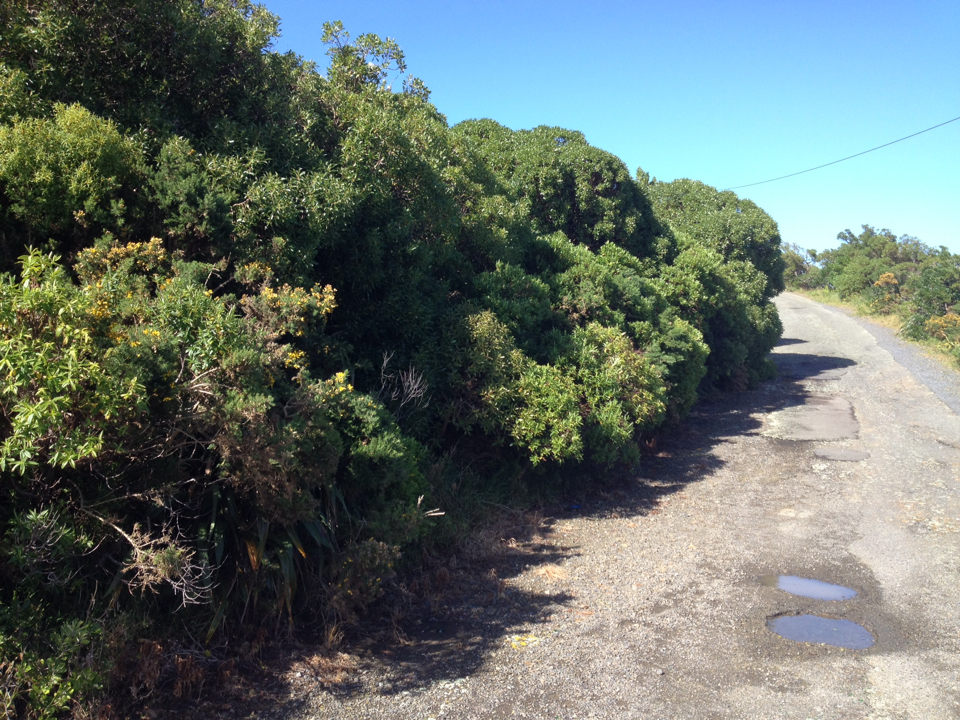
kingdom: Plantae
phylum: Tracheophyta
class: Magnoliopsida
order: Lamiales
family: Scrophulariaceae
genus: Myoporum
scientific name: Myoporum laetum
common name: Ngaio tree
